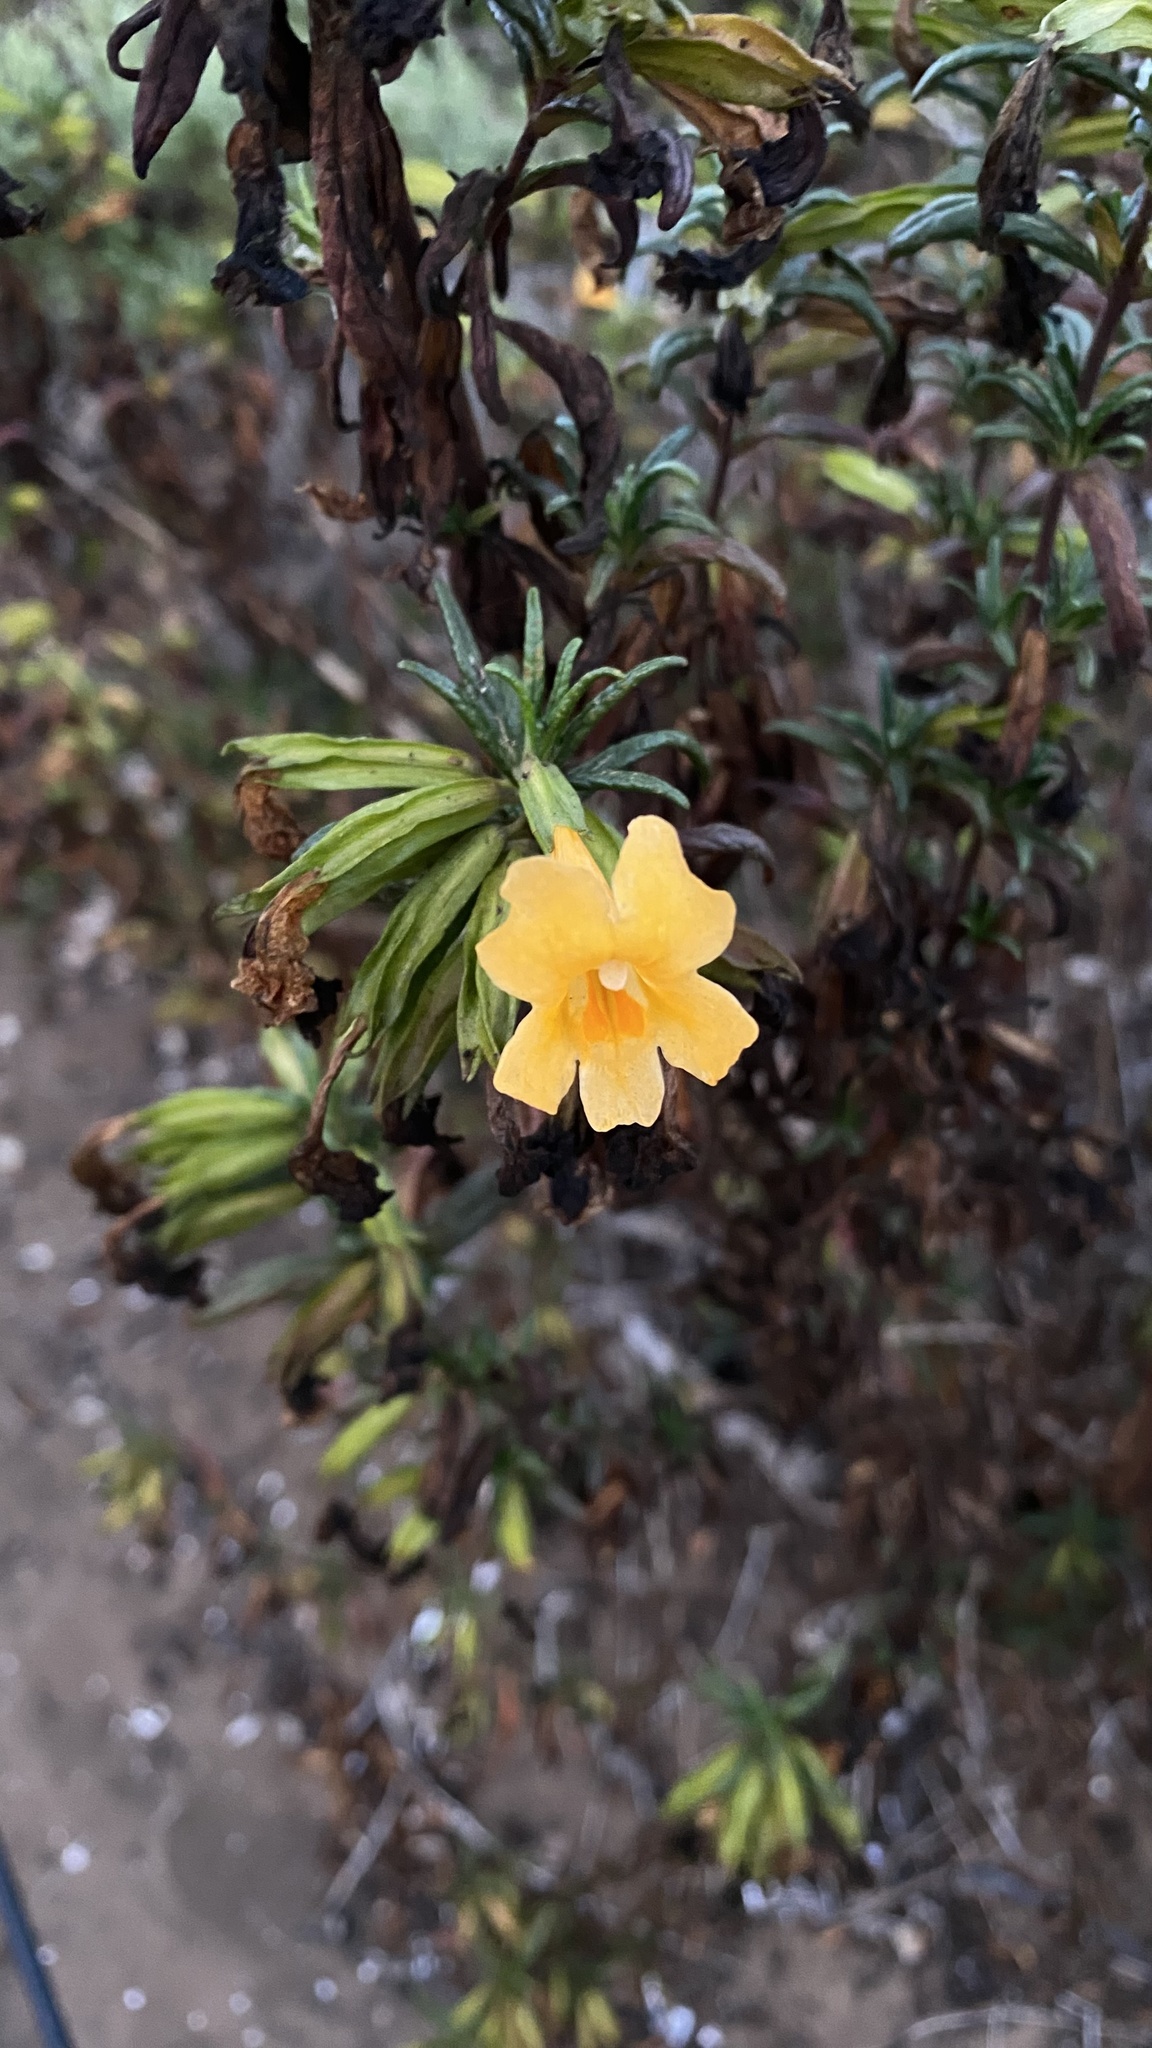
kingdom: Plantae
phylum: Tracheophyta
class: Magnoliopsida
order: Lamiales
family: Phrymaceae
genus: Diplacus
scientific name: Diplacus aurantiacus
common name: Bush monkey-flower
